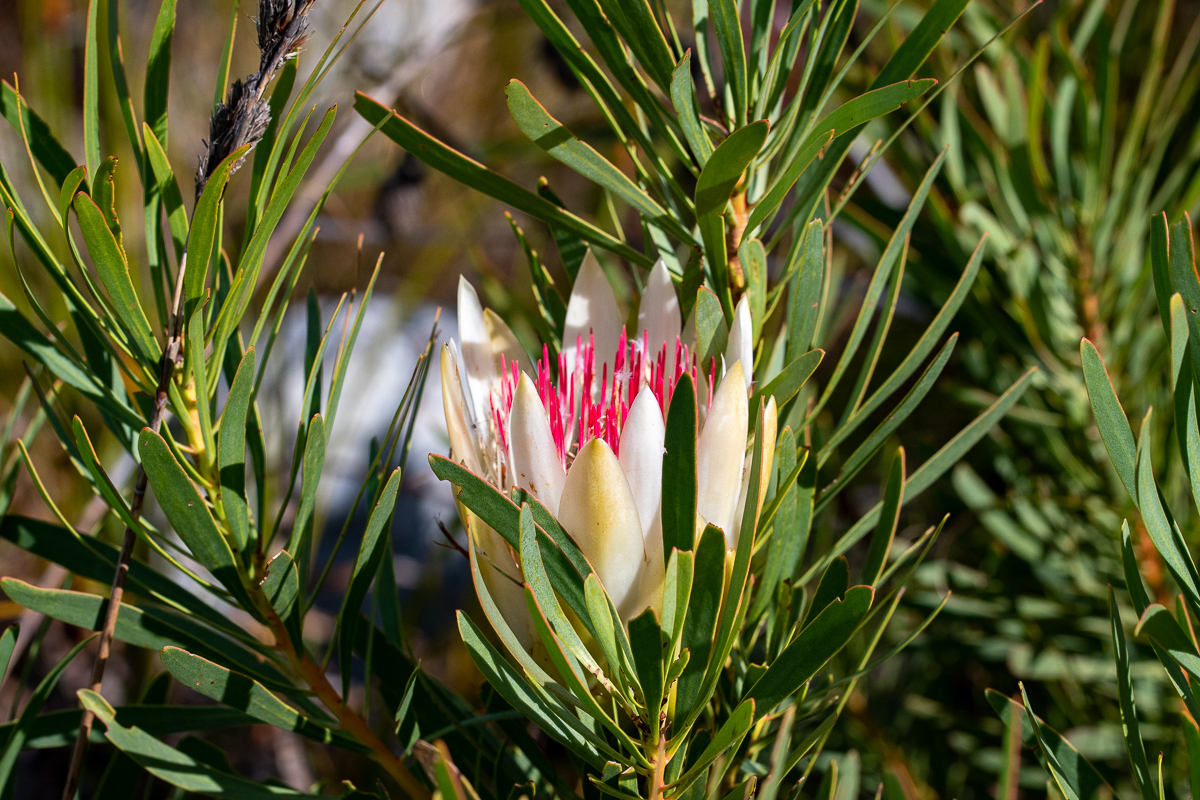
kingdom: Plantae
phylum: Tracheophyta
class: Magnoliopsida
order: Proteales
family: Proteaceae
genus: Protea
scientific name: Protea repens
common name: Sugarbush
